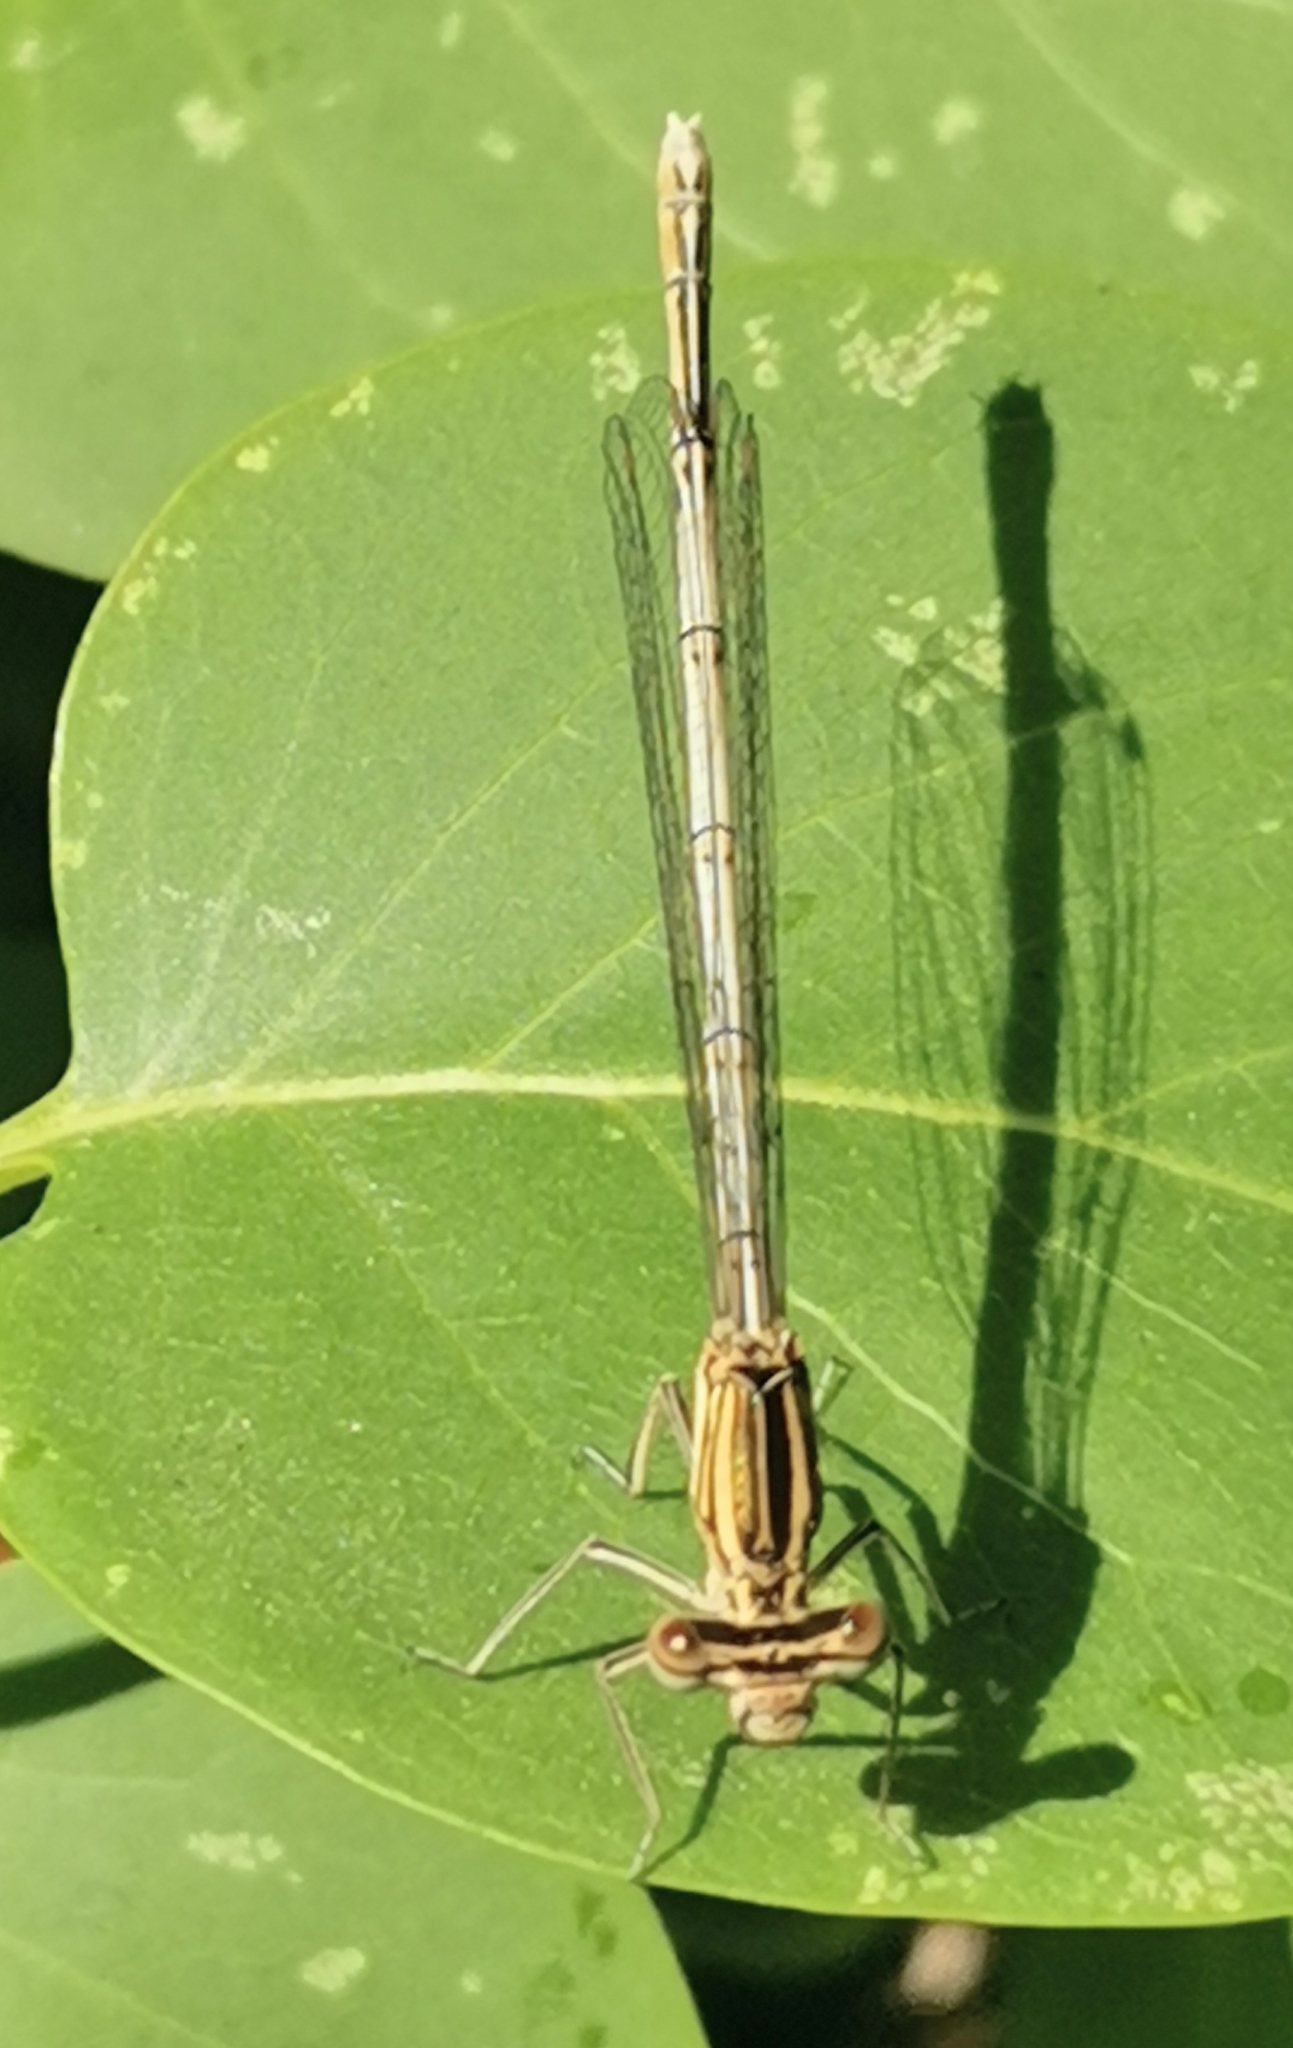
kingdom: Animalia
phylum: Arthropoda
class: Insecta
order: Odonata
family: Platycnemididae
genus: Platycnemis
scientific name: Platycnemis pennipes
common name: White-legged damselfly
